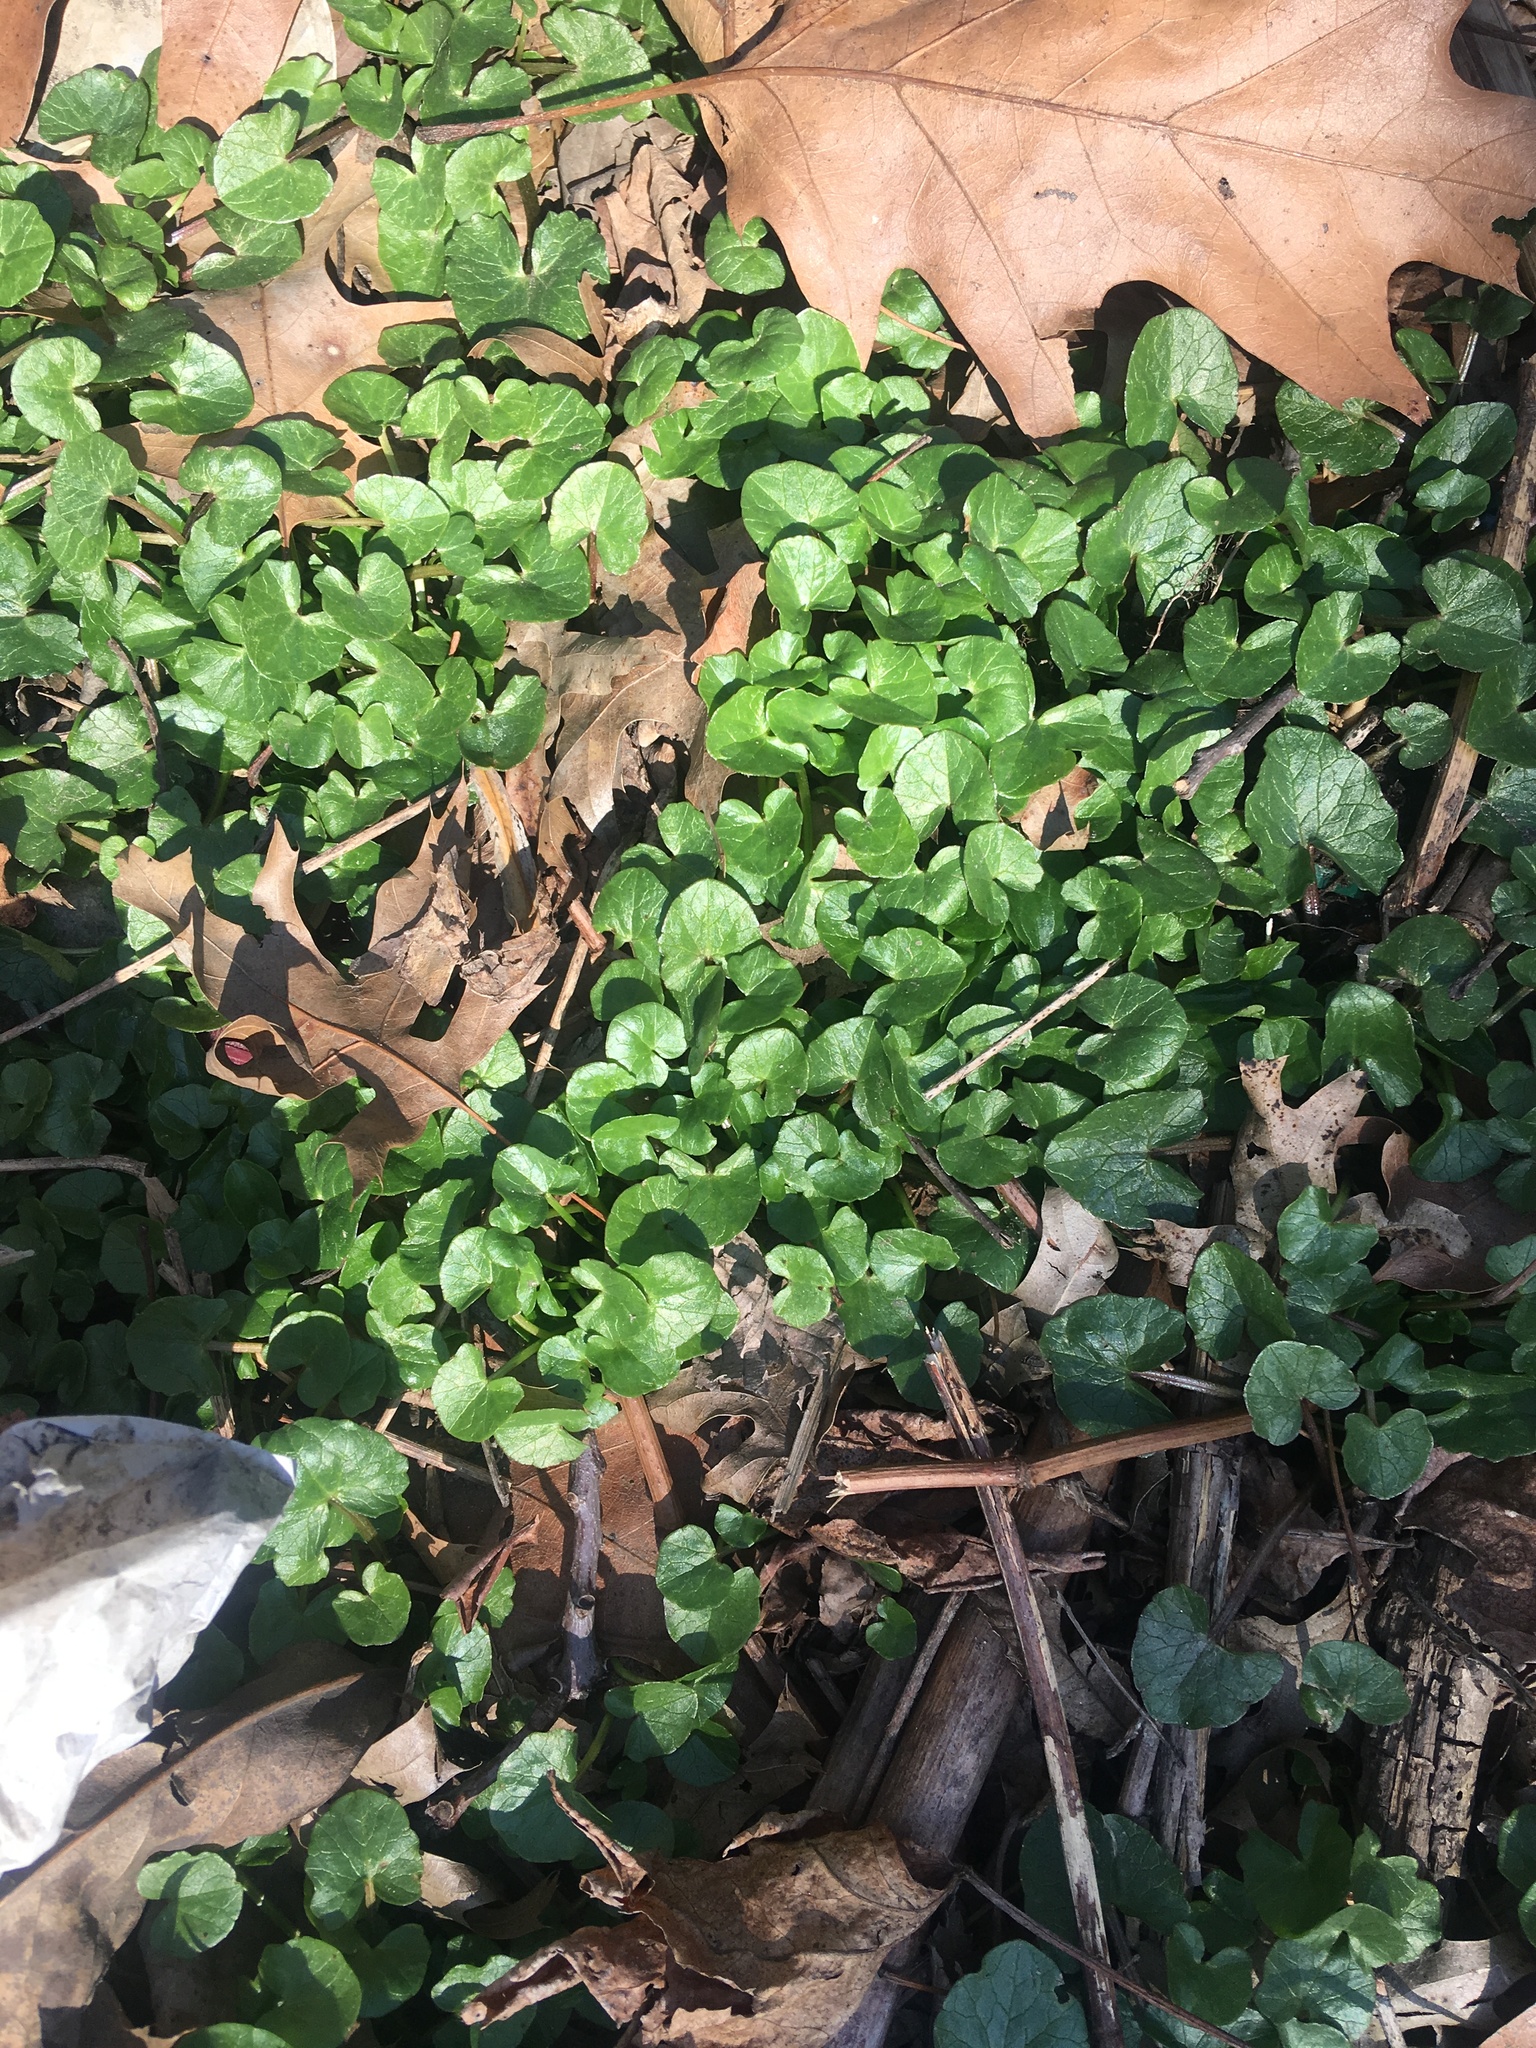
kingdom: Plantae
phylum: Tracheophyta
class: Magnoliopsida
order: Ranunculales
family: Ranunculaceae
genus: Ficaria
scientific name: Ficaria verna
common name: Lesser celandine
